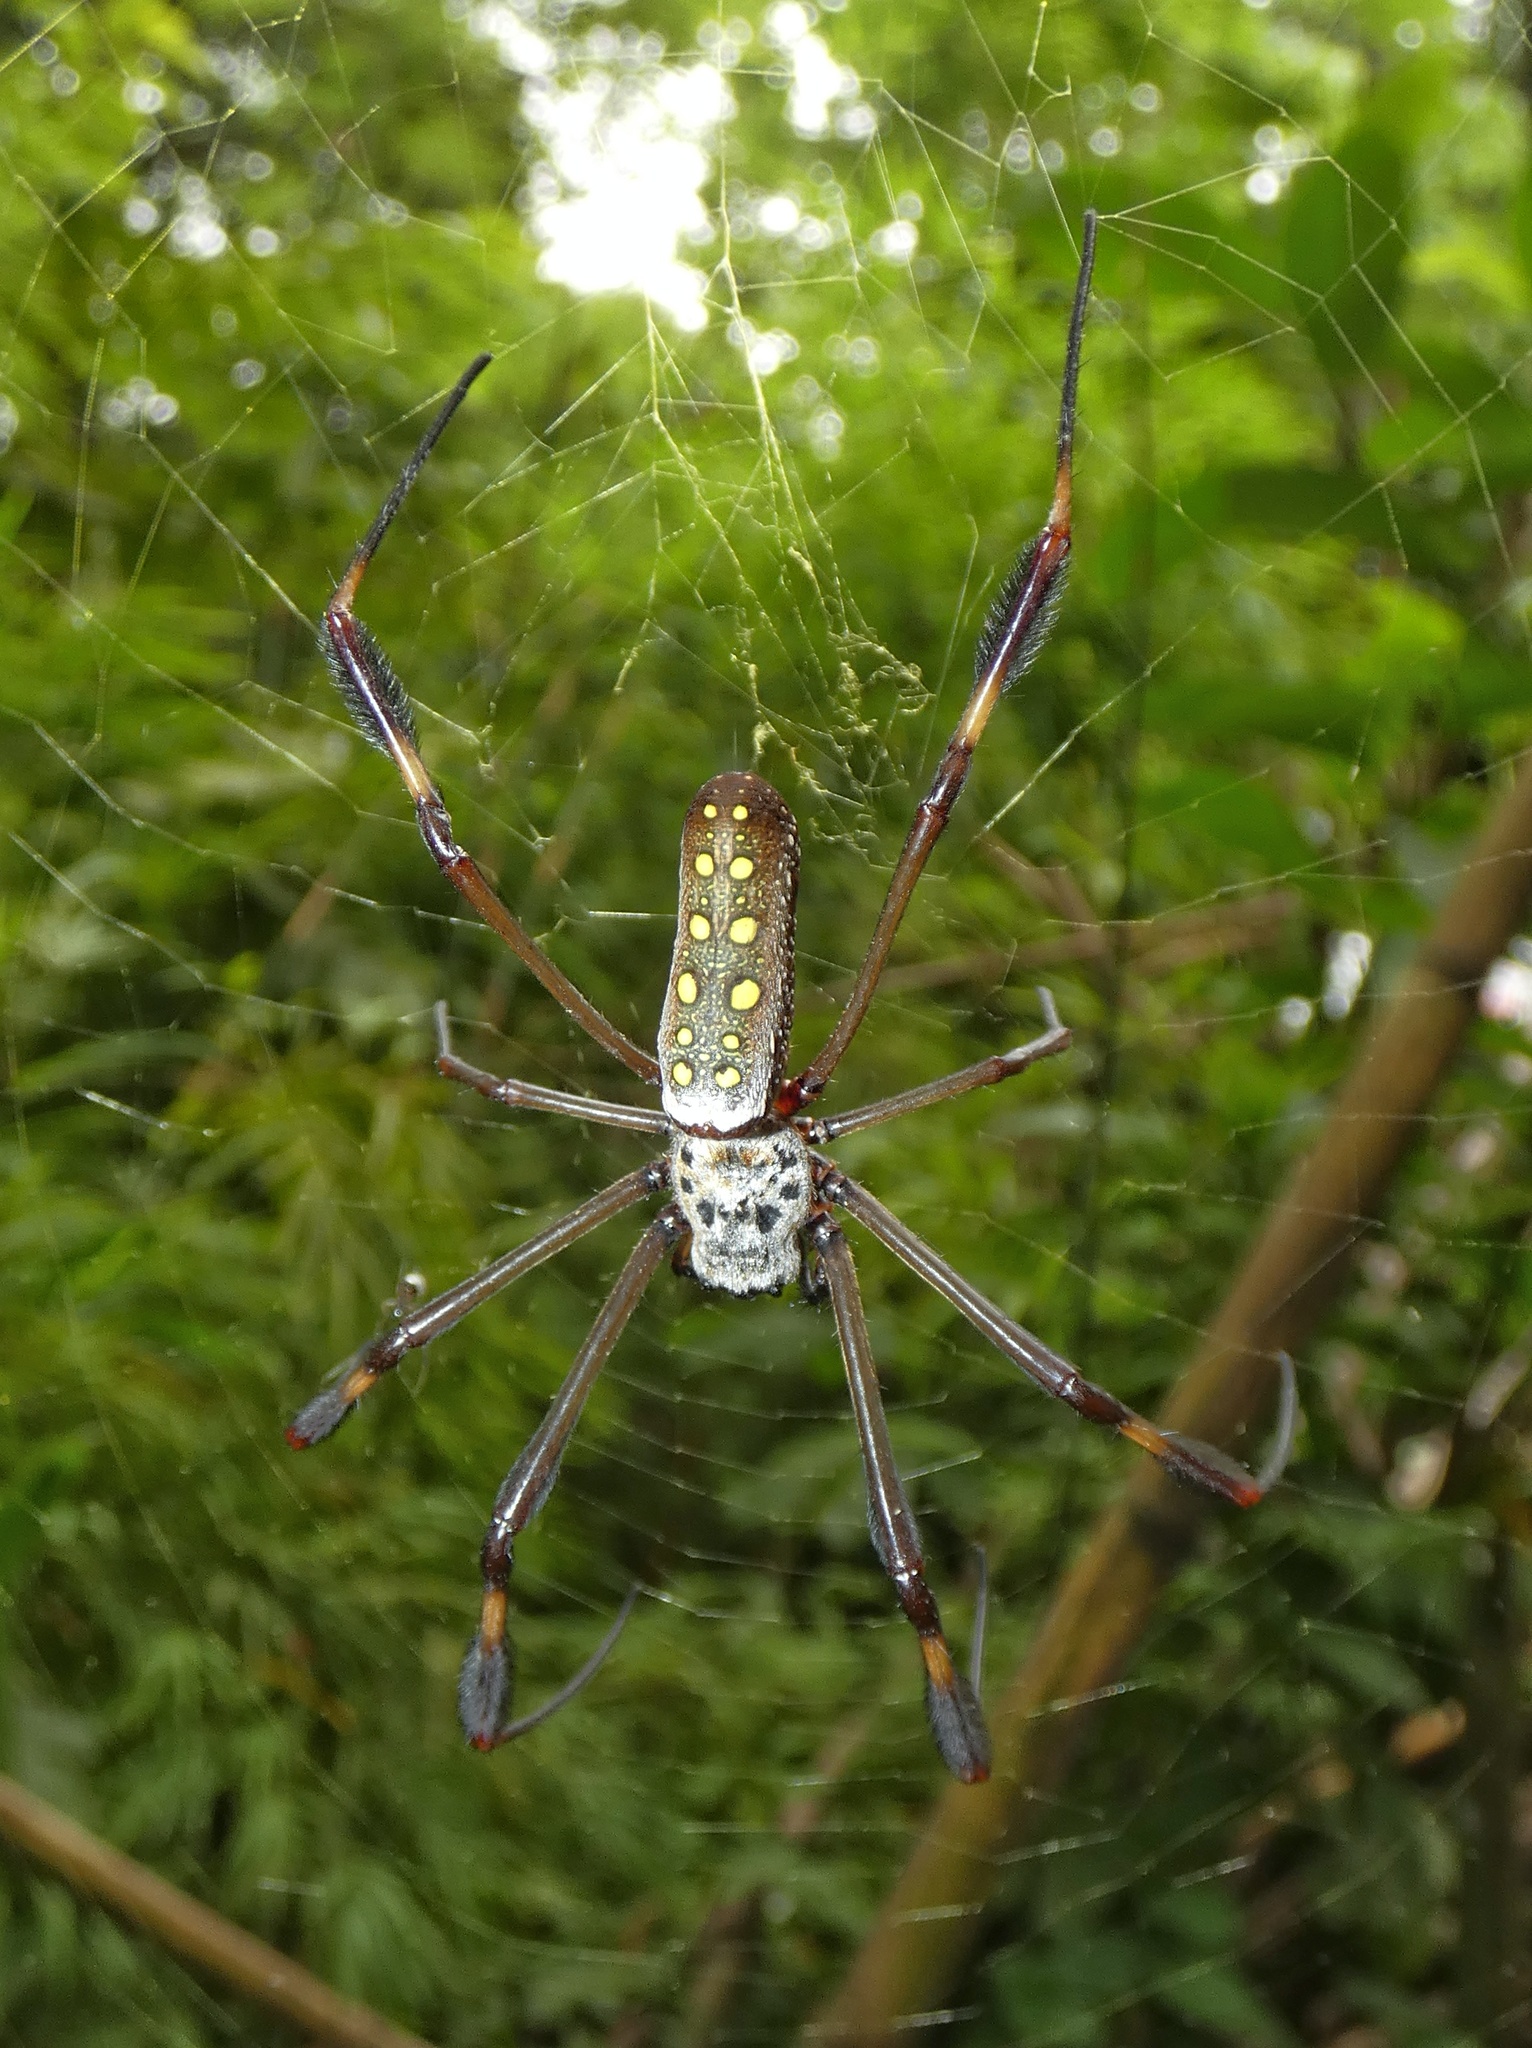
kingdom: Animalia
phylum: Arthropoda
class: Arachnida
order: Araneae
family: Araneidae
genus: Trichonephila
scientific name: Trichonephila clavipes
